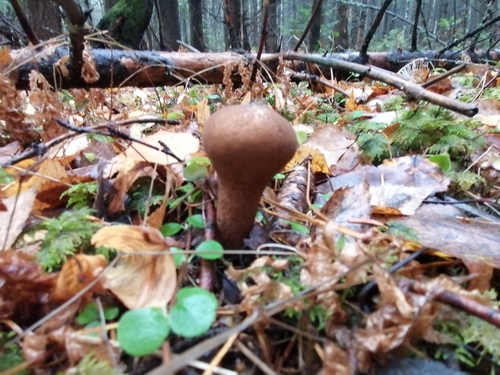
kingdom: Fungi
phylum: Basidiomycota
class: Agaricomycetes
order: Agaricales
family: Lycoperdaceae
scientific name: Lycoperdaceae
